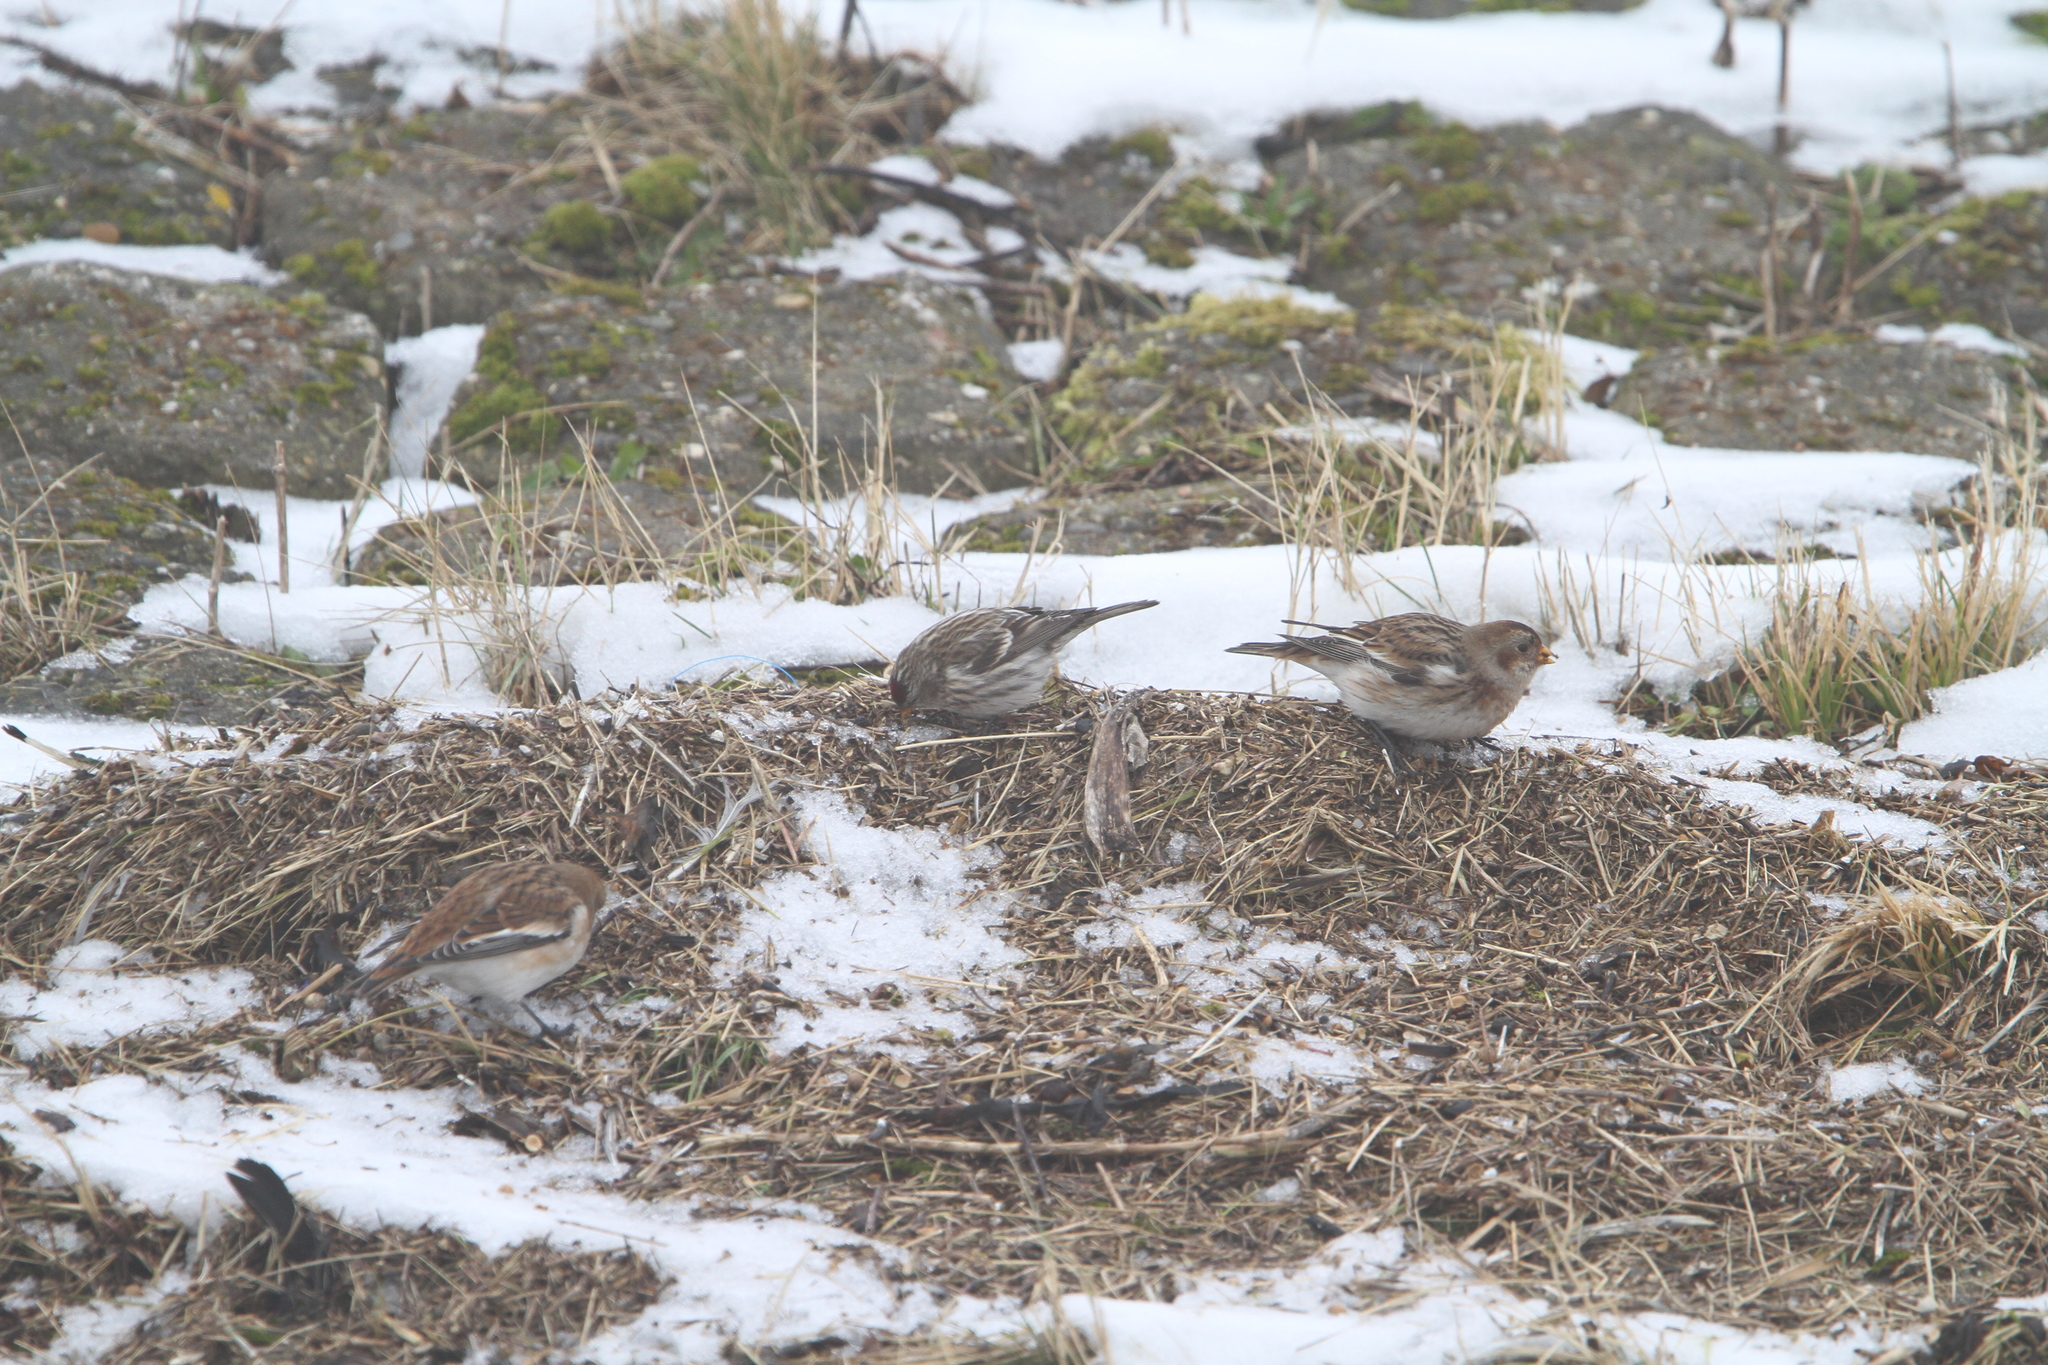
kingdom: Animalia
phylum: Chordata
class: Aves
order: Passeriformes
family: Fringillidae
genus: Acanthis
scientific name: Acanthis flammea
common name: Common redpoll
